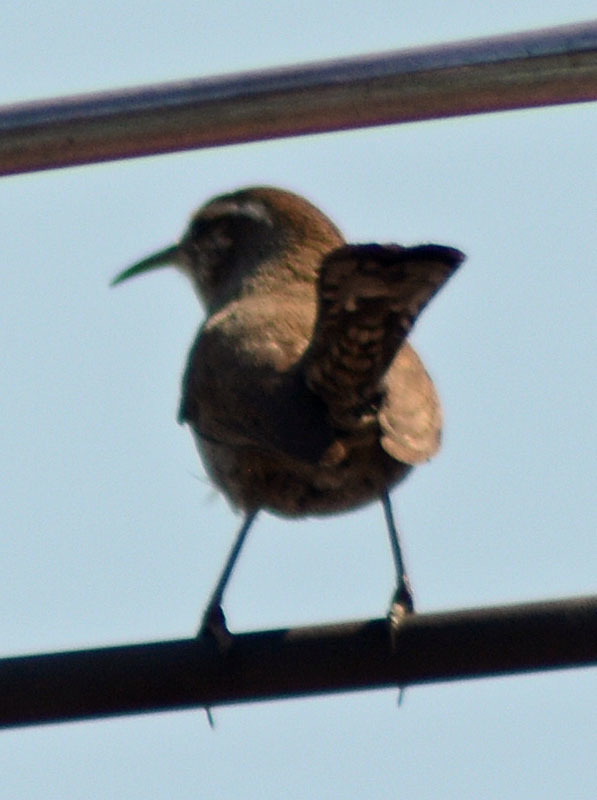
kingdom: Animalia
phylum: Chordata
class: Aves
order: Passeriformes
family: Troglodytidae
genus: Thryomanes
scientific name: Thryomanes bewickii
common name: Bewick's wren
